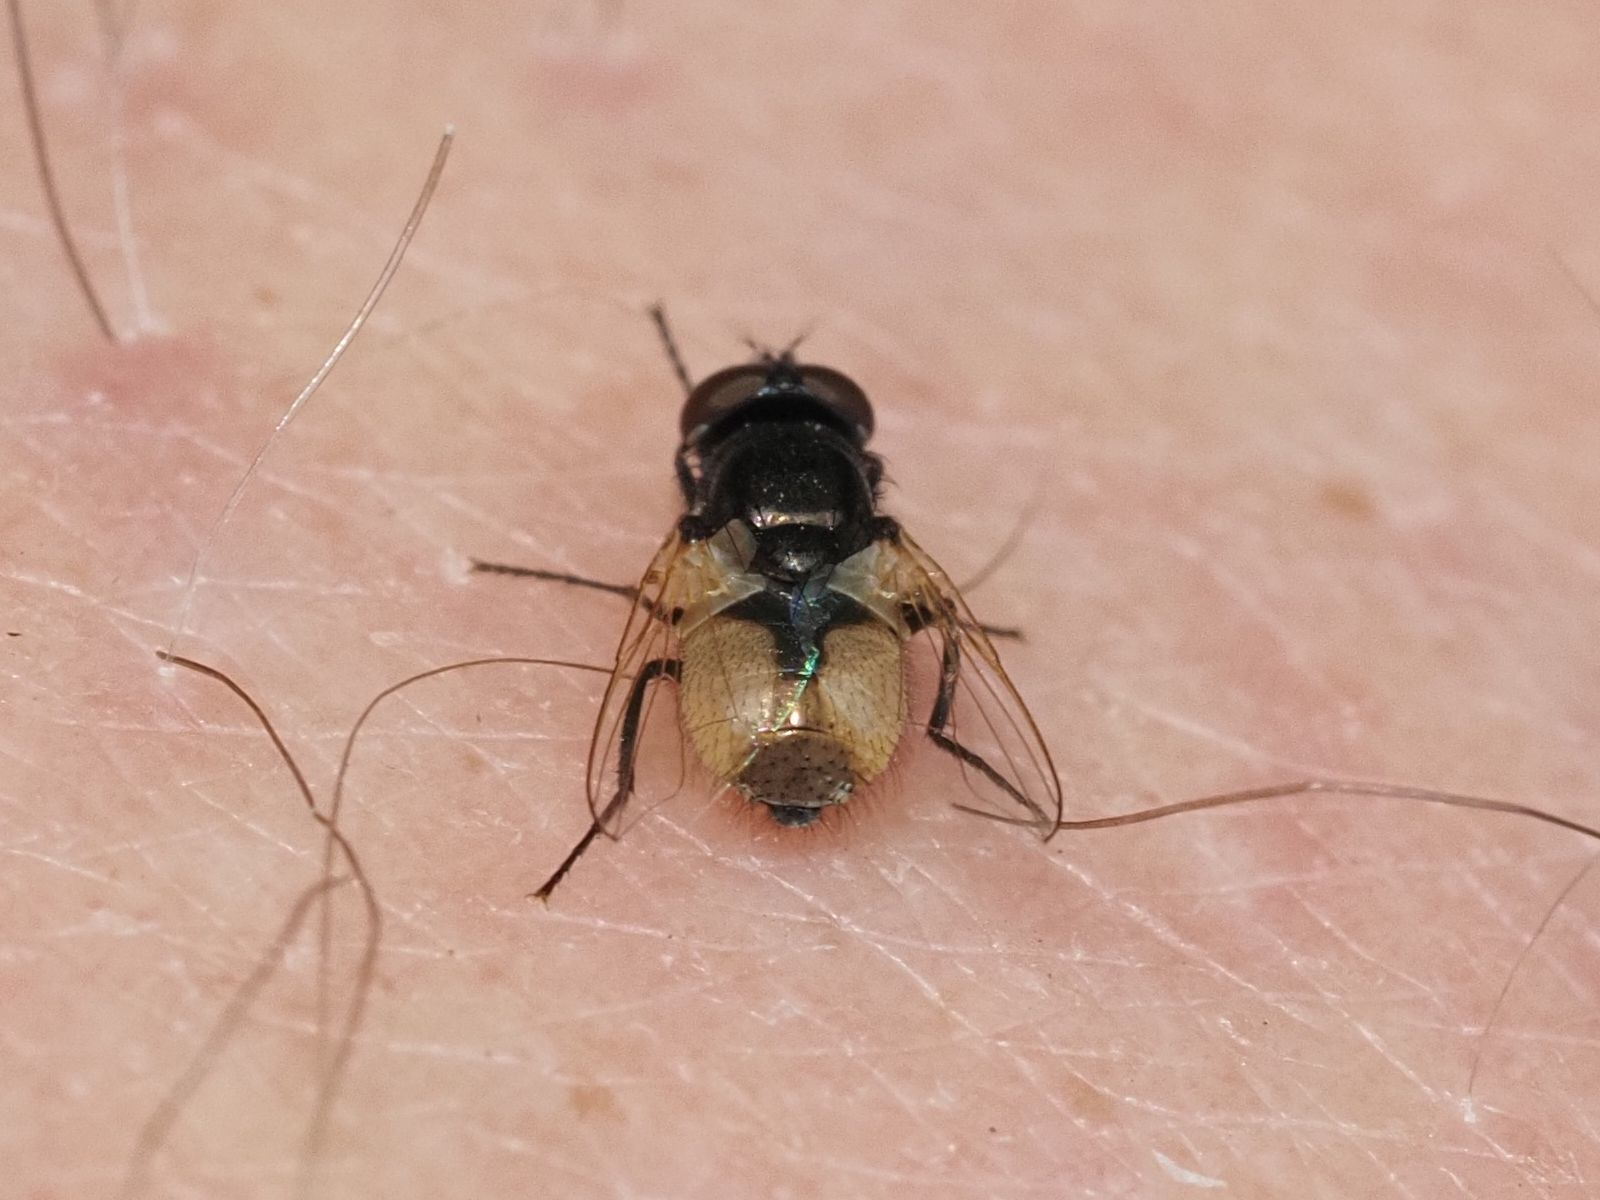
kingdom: Animalia
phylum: Arthropoda
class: Insecta
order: Diptera
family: Muscidae
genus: Musca
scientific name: Musca osiris
